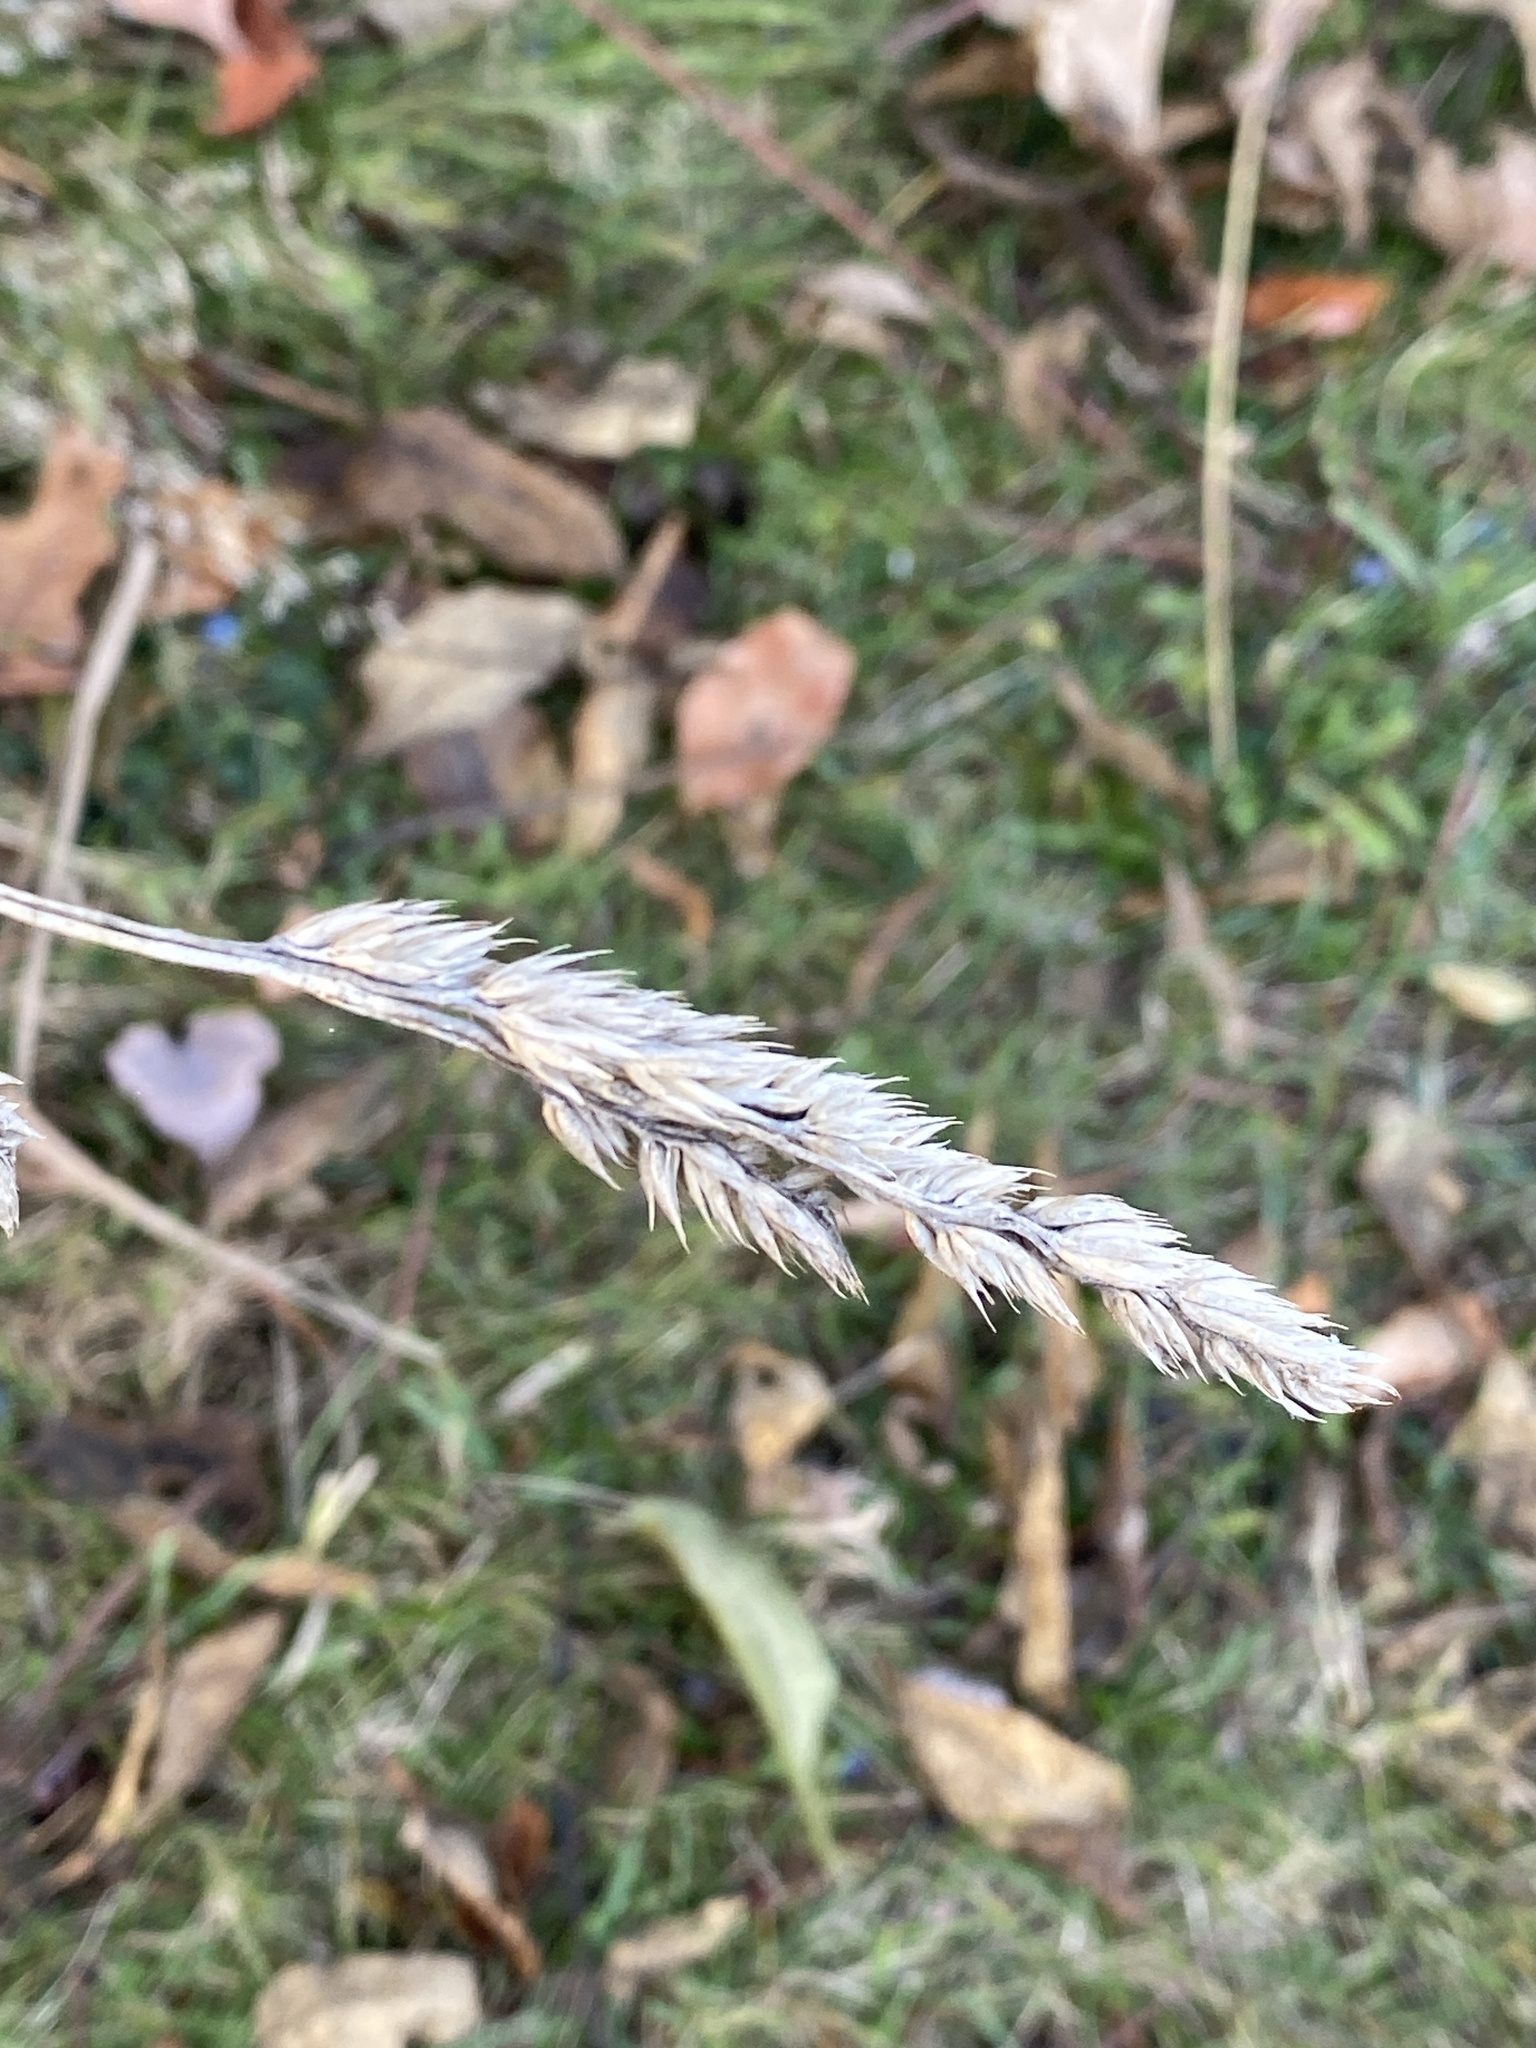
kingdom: Plantae
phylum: Tracheophyta
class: Liliopsida
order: Poales
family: Poaceae
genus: Dactylis
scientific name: Dactylis glomerata
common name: Orchardgrass
